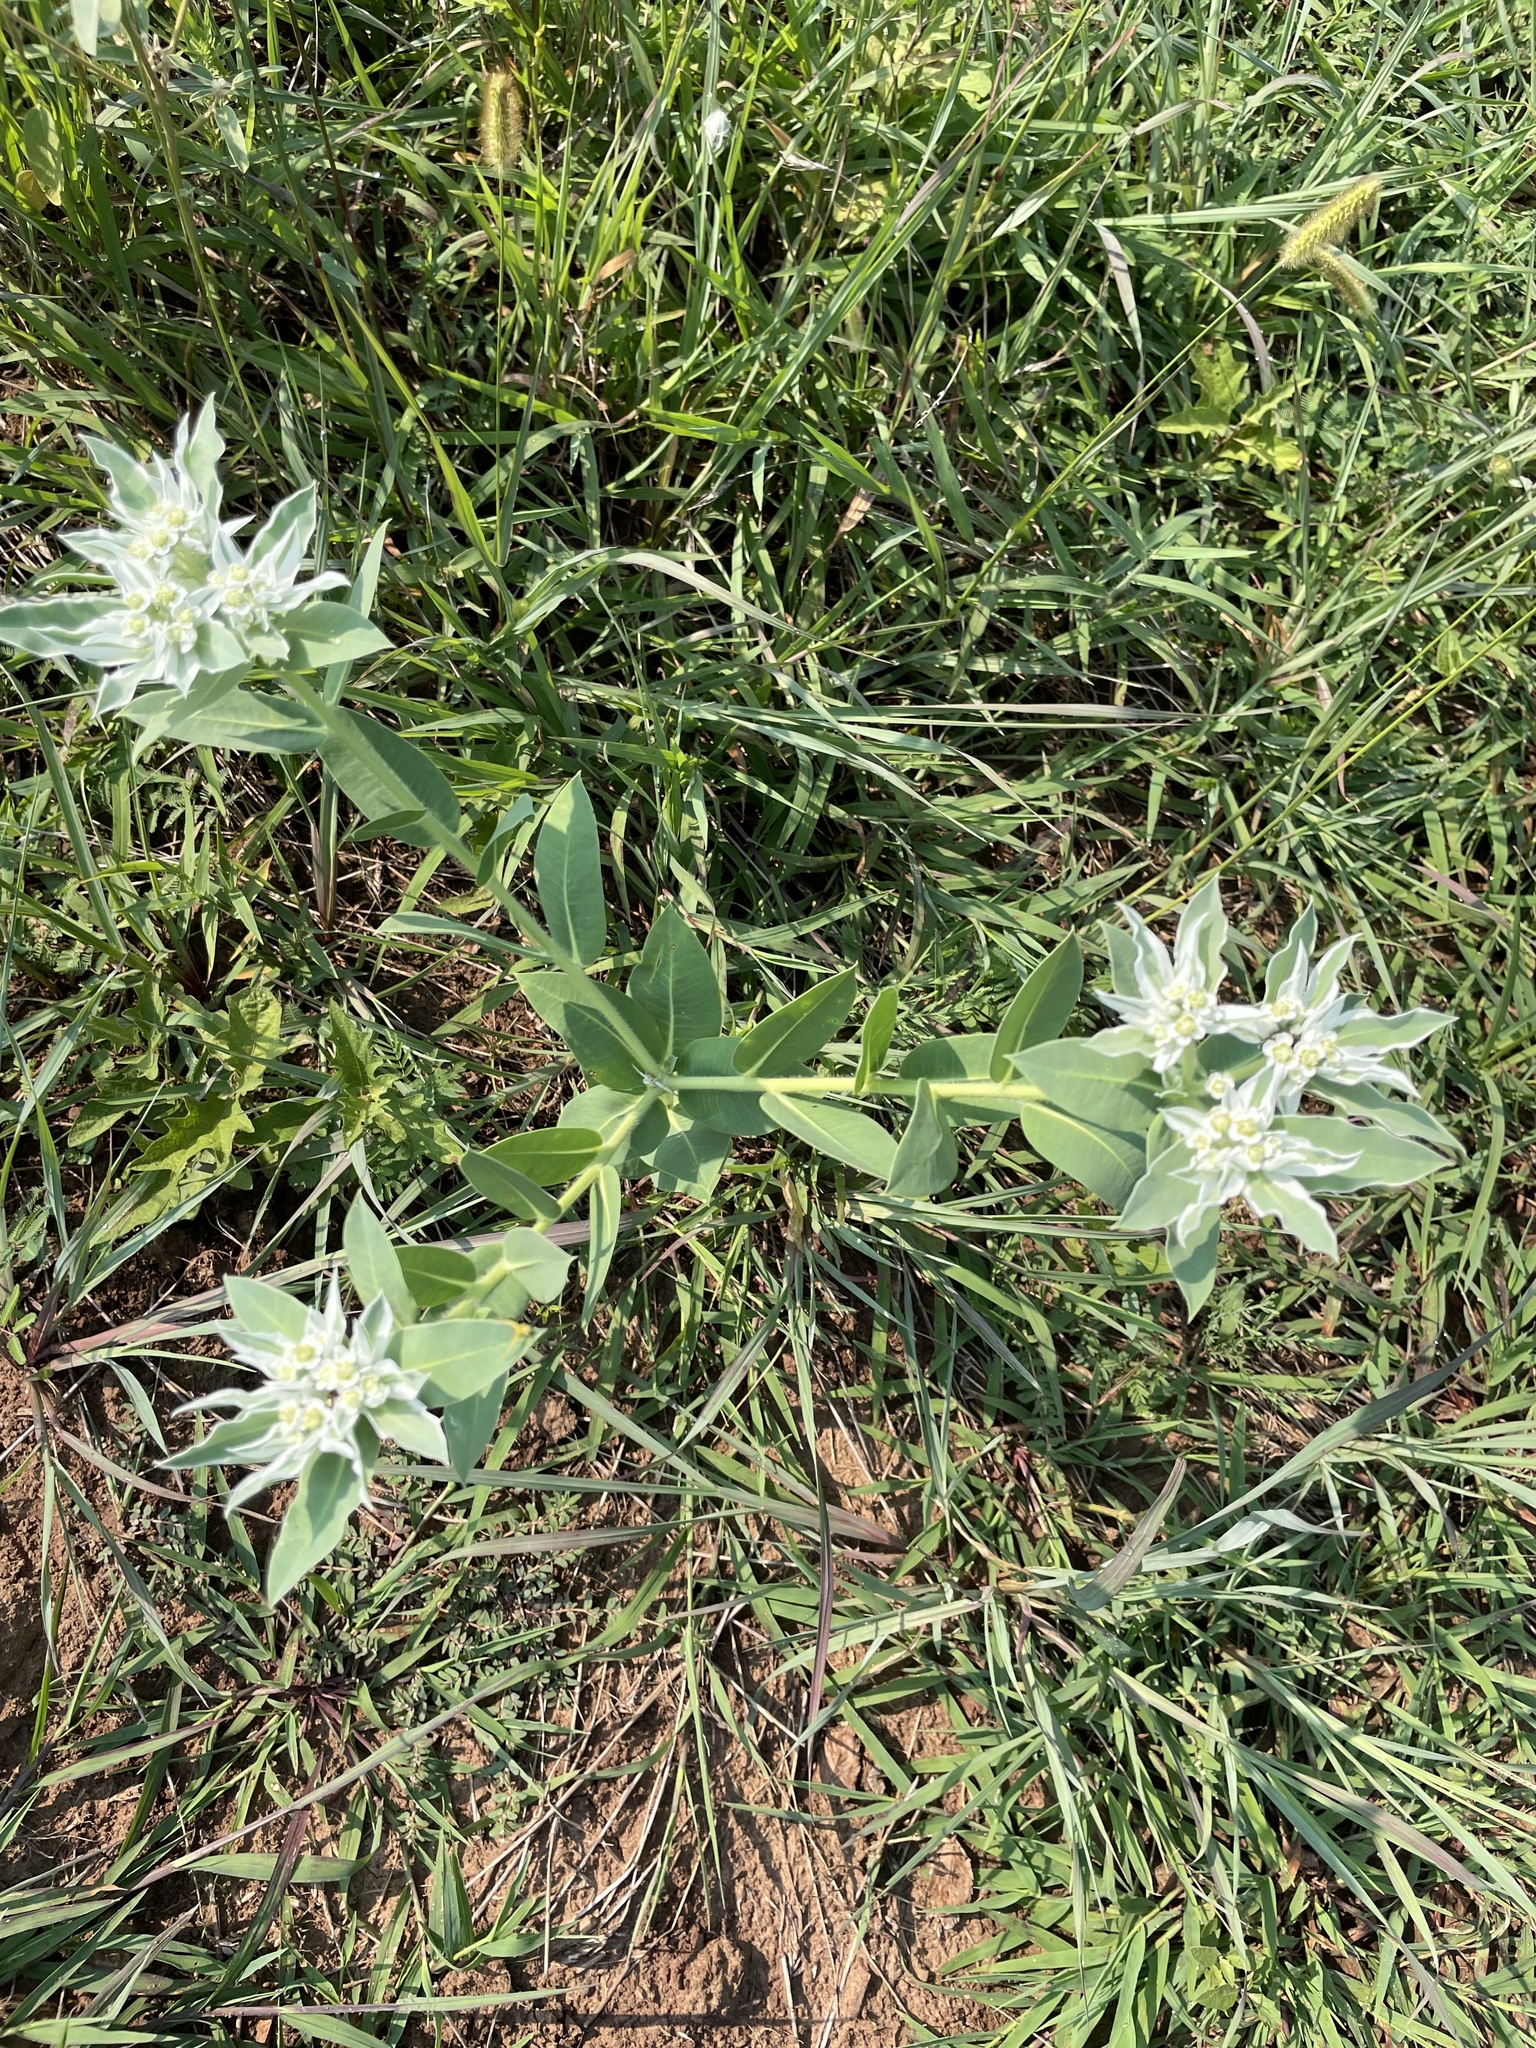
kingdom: Plantae
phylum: Tracheophyta
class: Magnoliopsida
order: Malpighiales
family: Euphorbiaceae
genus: Euphorbia
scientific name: Euphorbia marginata
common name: Ghostweed
